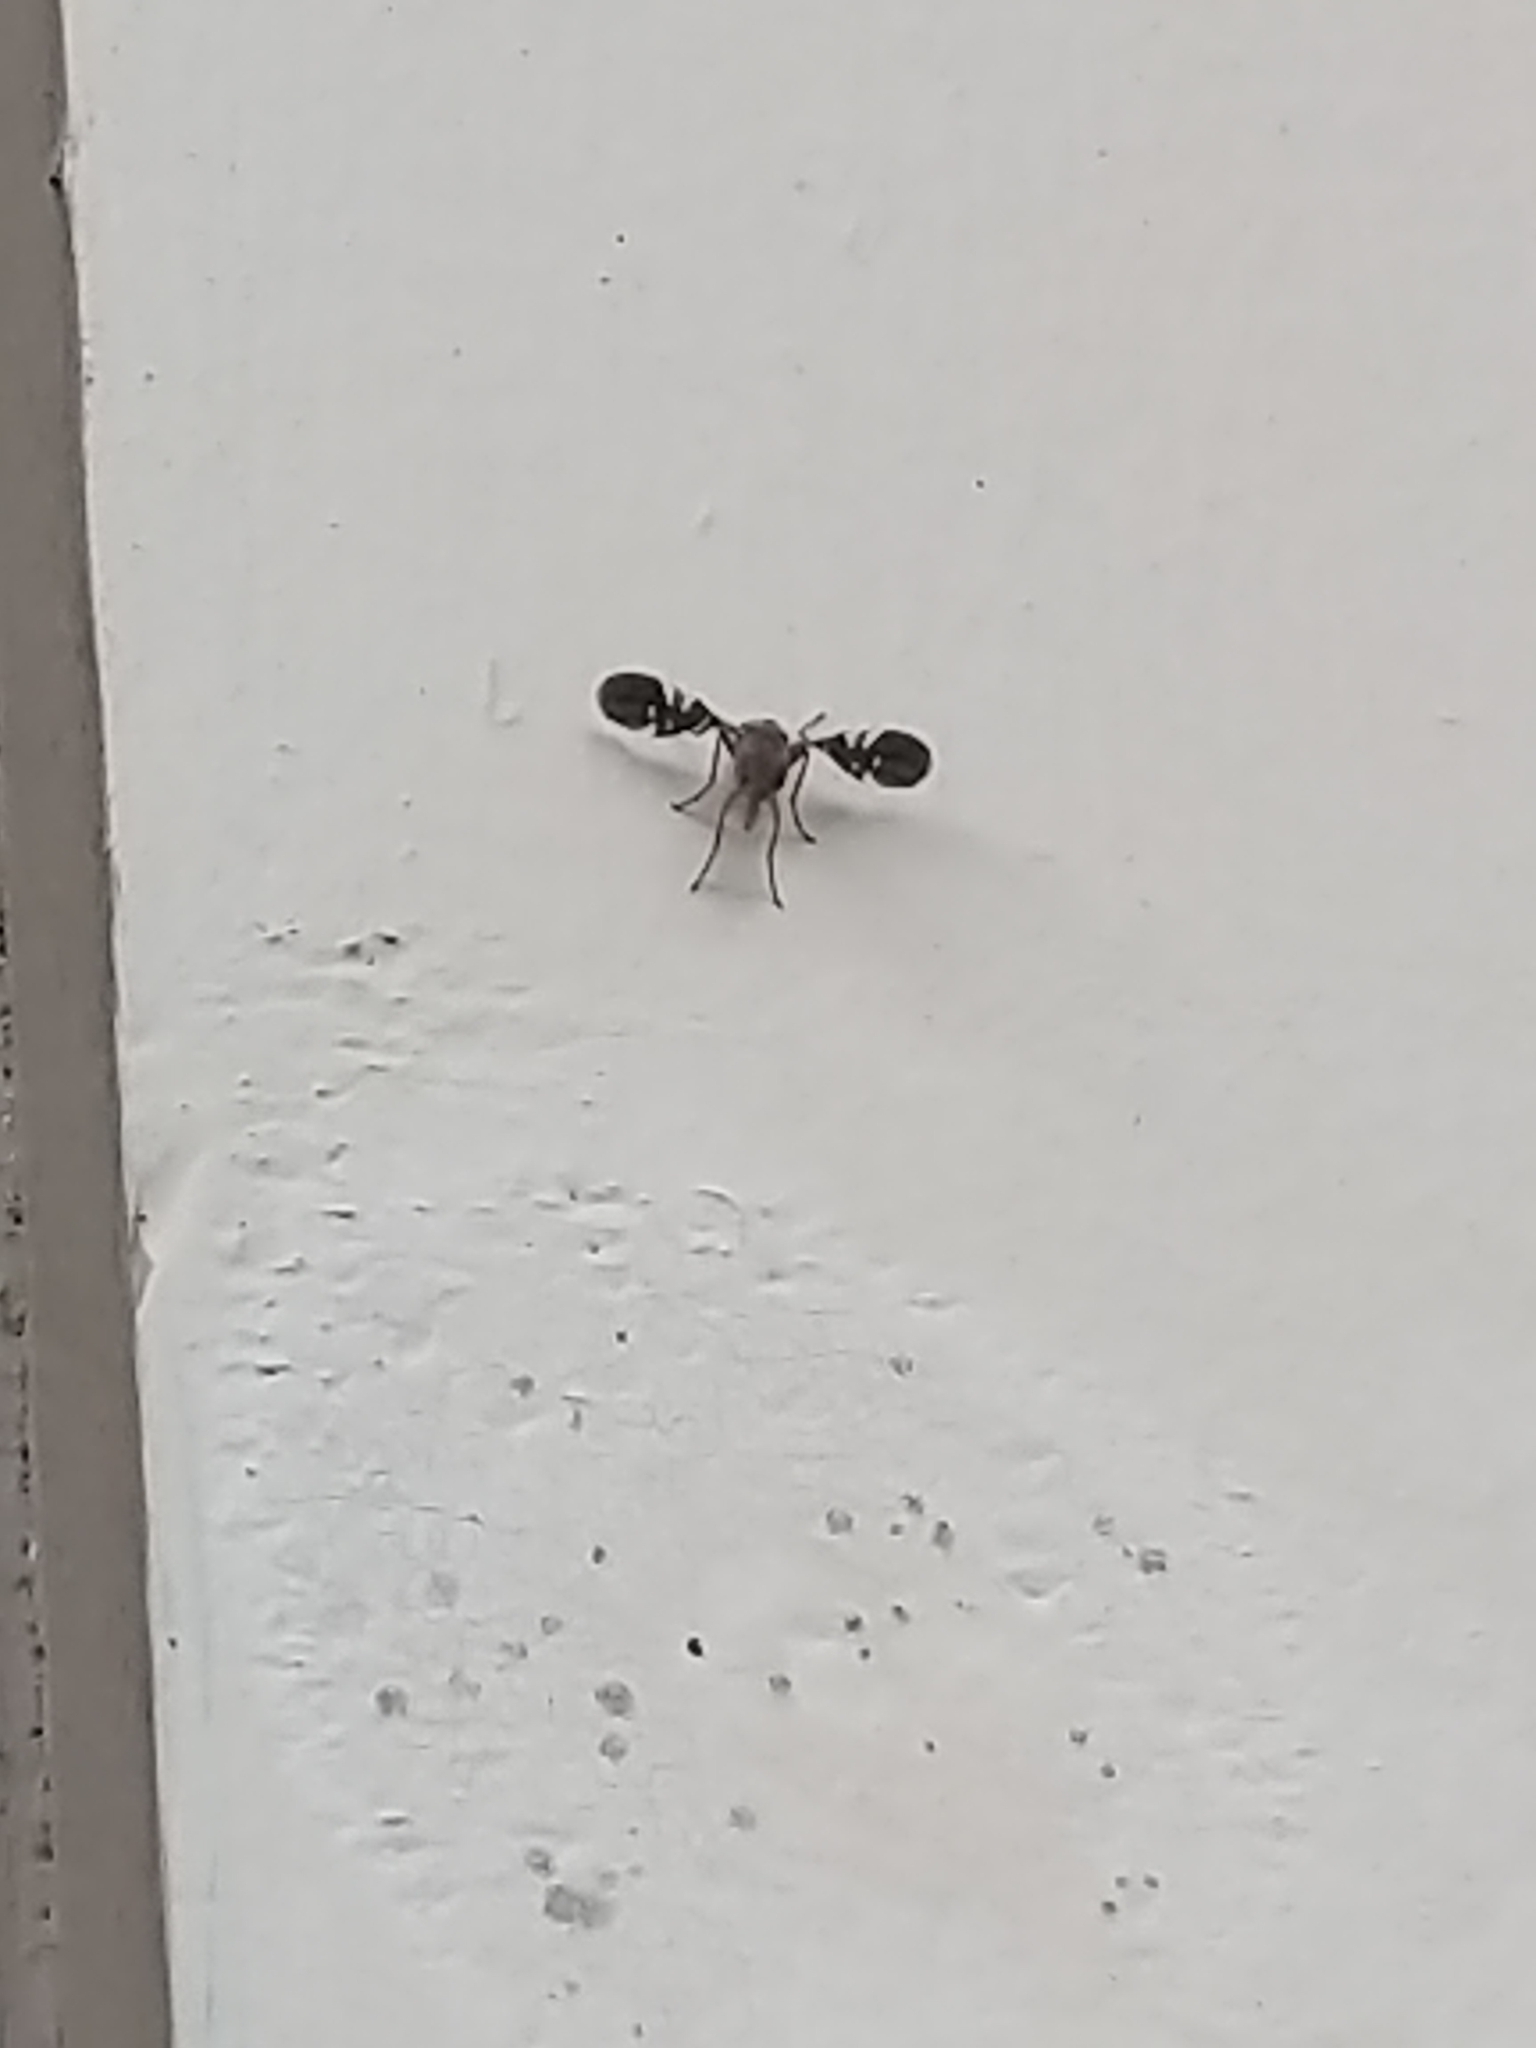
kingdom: Animalia
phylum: Arthropoda
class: Insecta
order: Diptera
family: Ulidiidae
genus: Delphinia
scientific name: Delphinia picta
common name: Common picture-winged fly
